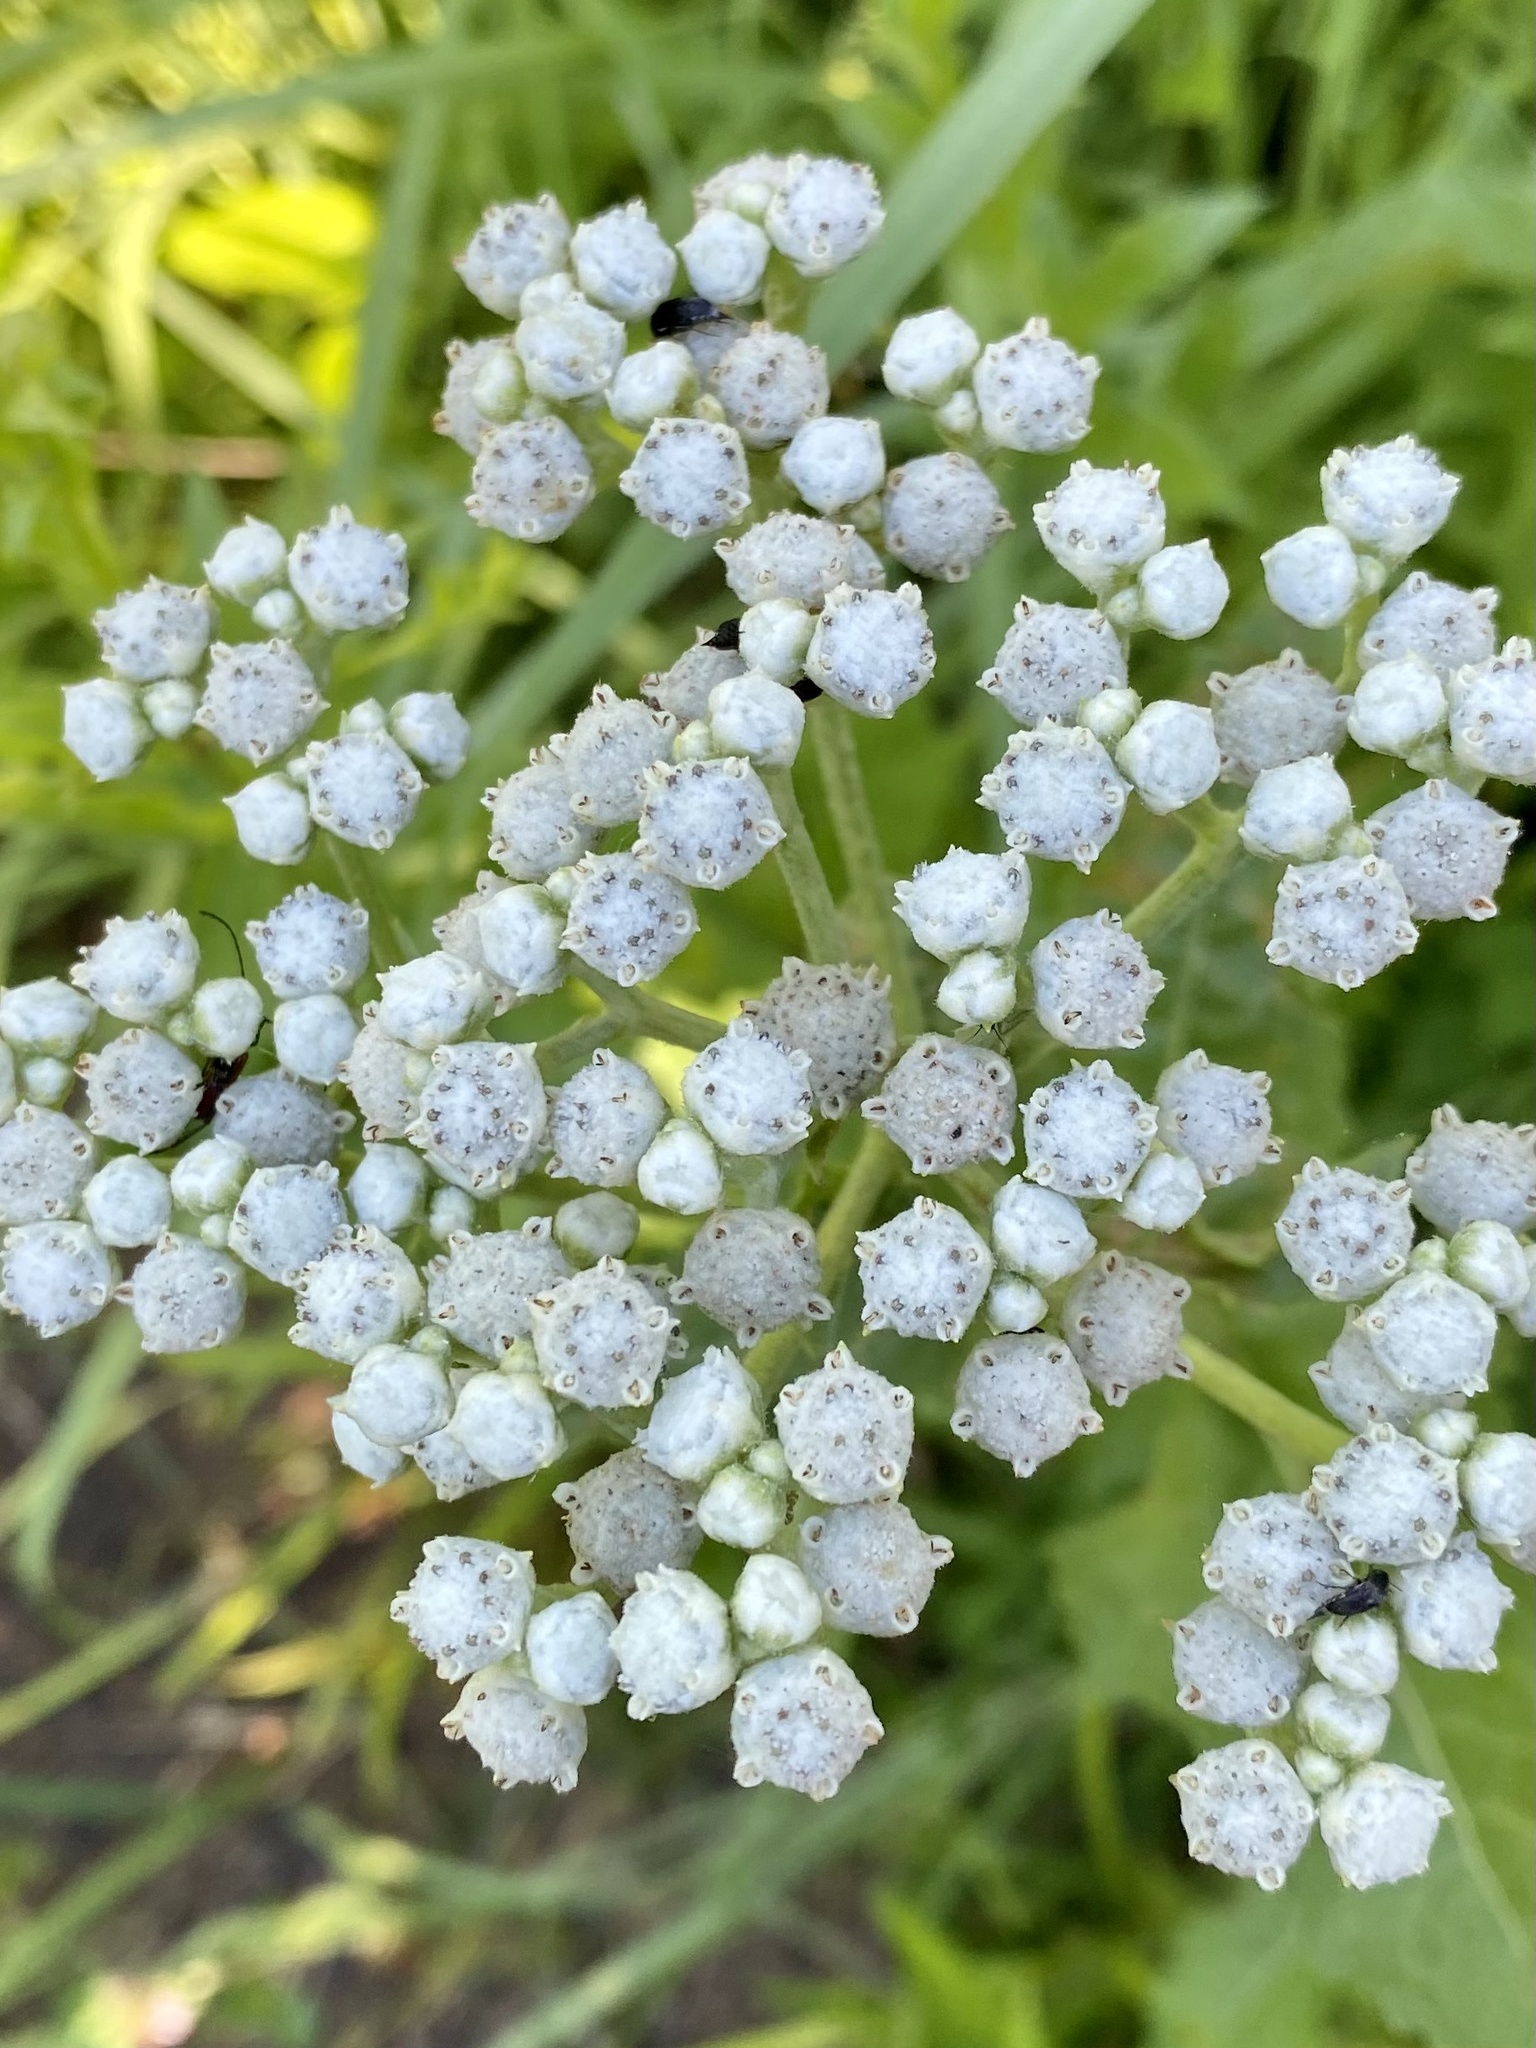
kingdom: Plantae
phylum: Tracheophyta
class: Magnoliopsida
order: Asterales
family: Asteraceae
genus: Parthenium
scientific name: Parthenium integrifolium
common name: American feverfew
